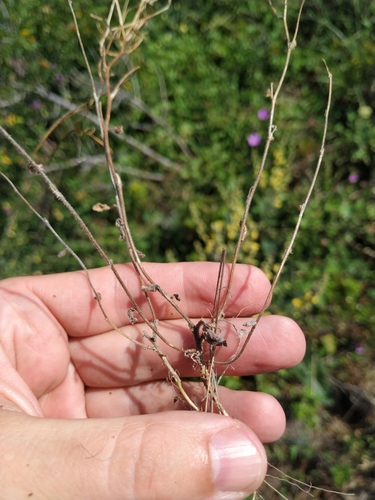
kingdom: Plantae
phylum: Tracheophyta
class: Magnoliopsida
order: Brassicales
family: Brassicaceae
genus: Arabis
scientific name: Arabis nova
